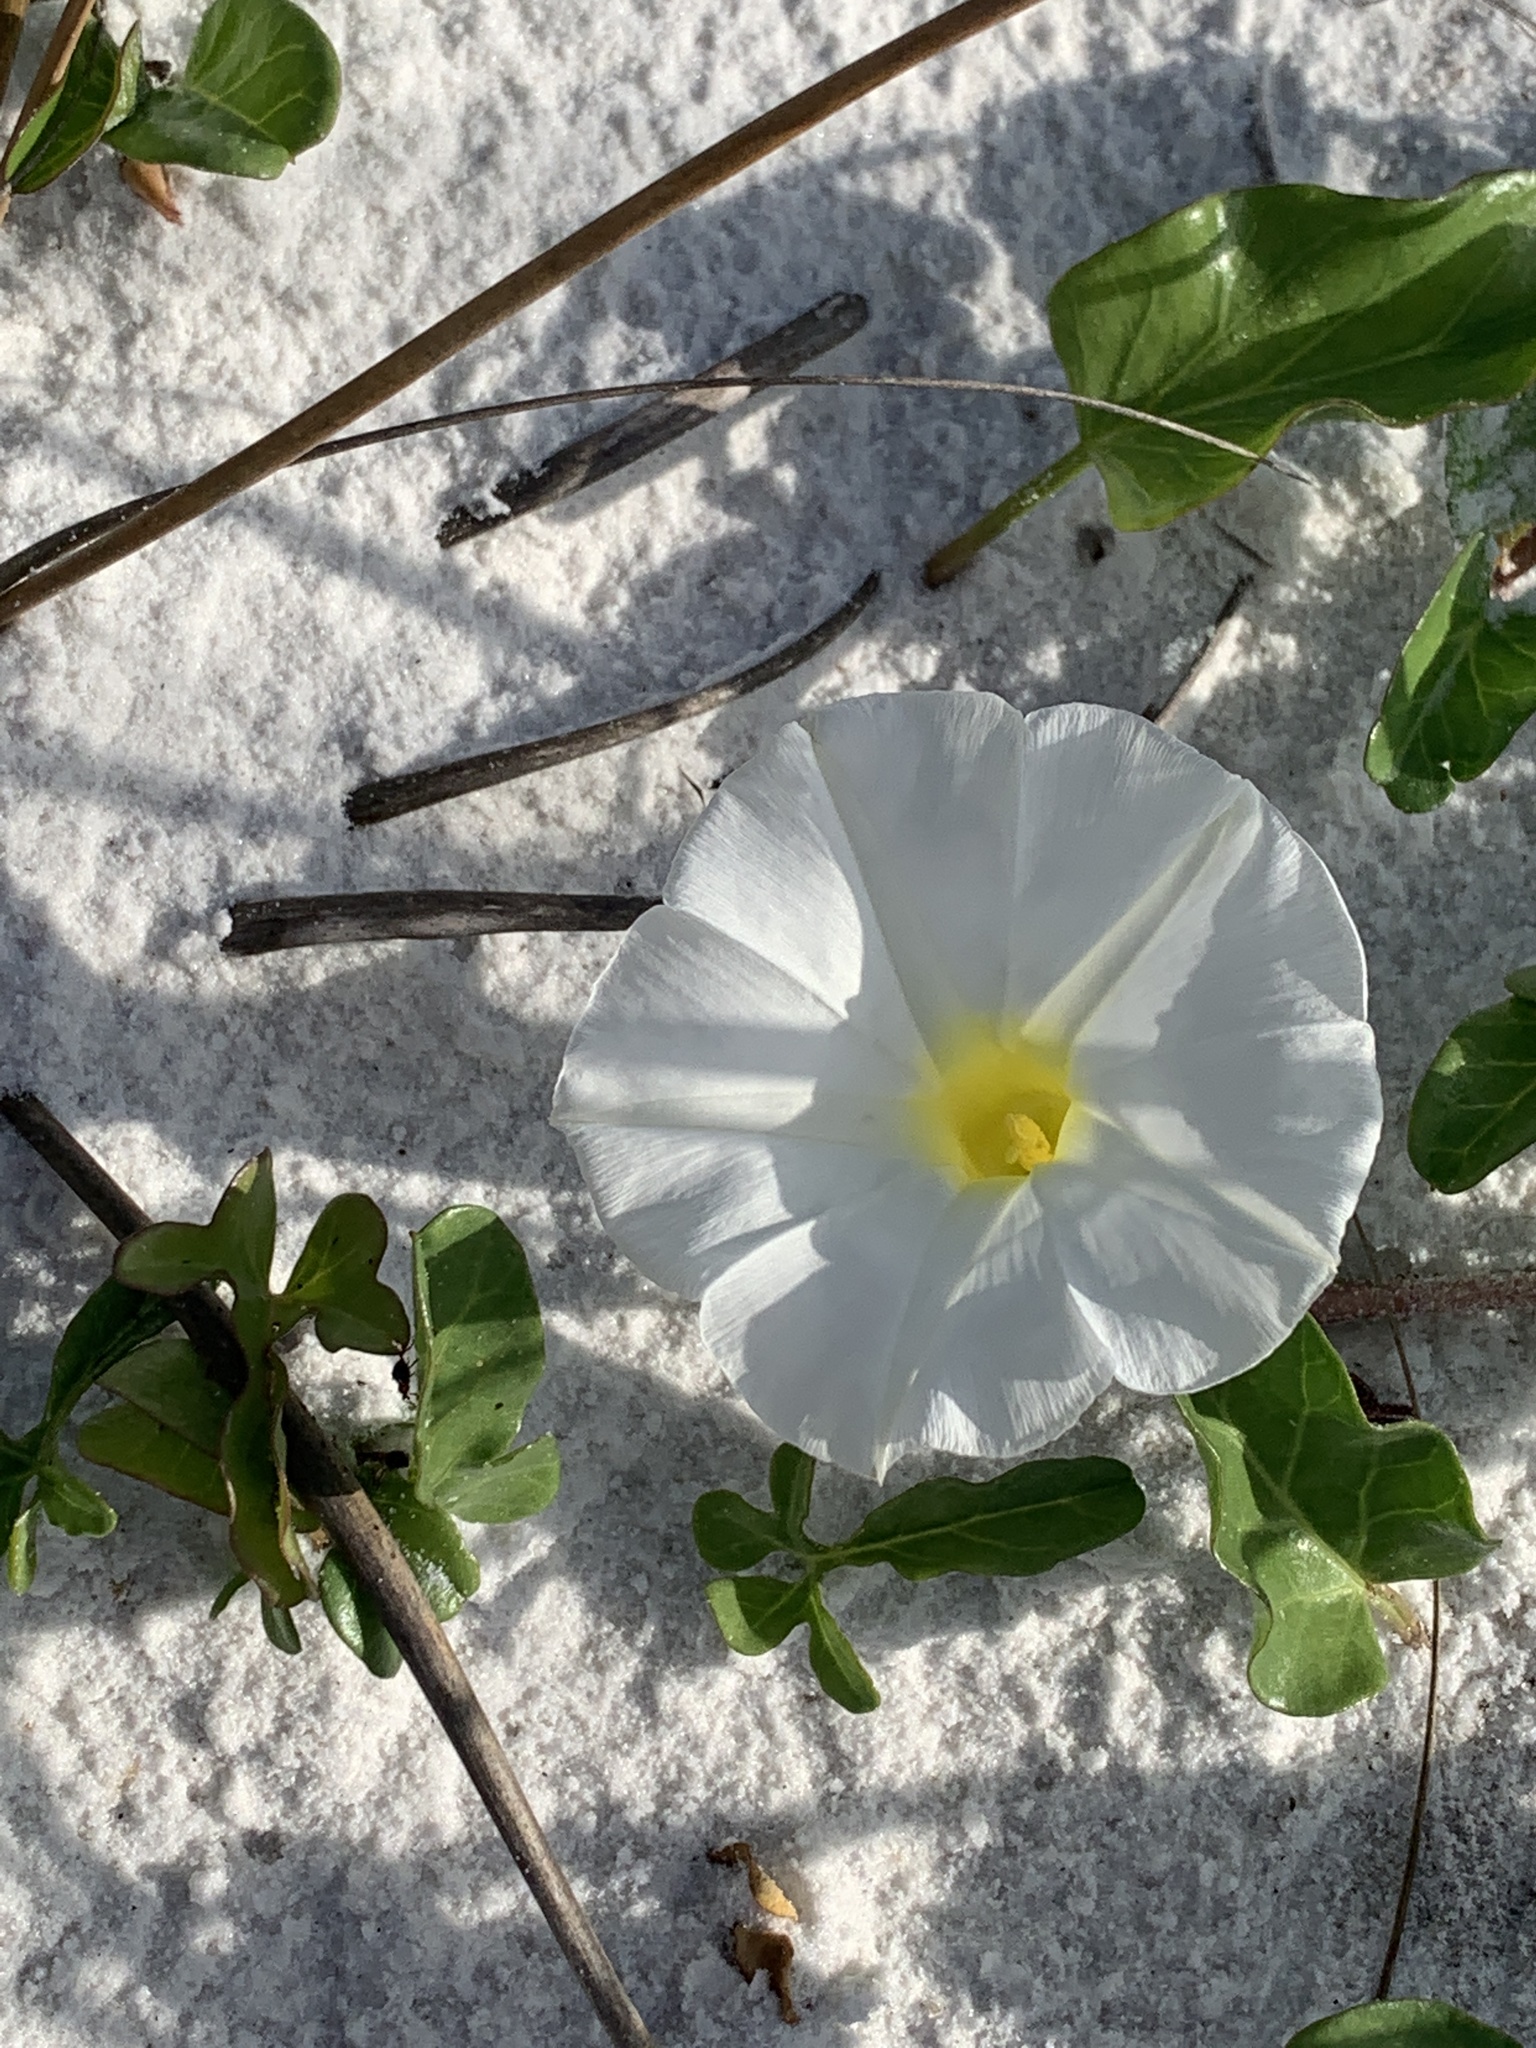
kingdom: Plantae
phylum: Tracheophyta
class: Magnoliopsida
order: Solanales
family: Convolvulaceae
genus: Ipomoea
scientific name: Ipomoea imperati
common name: Fiddle-leaf morning-glory
